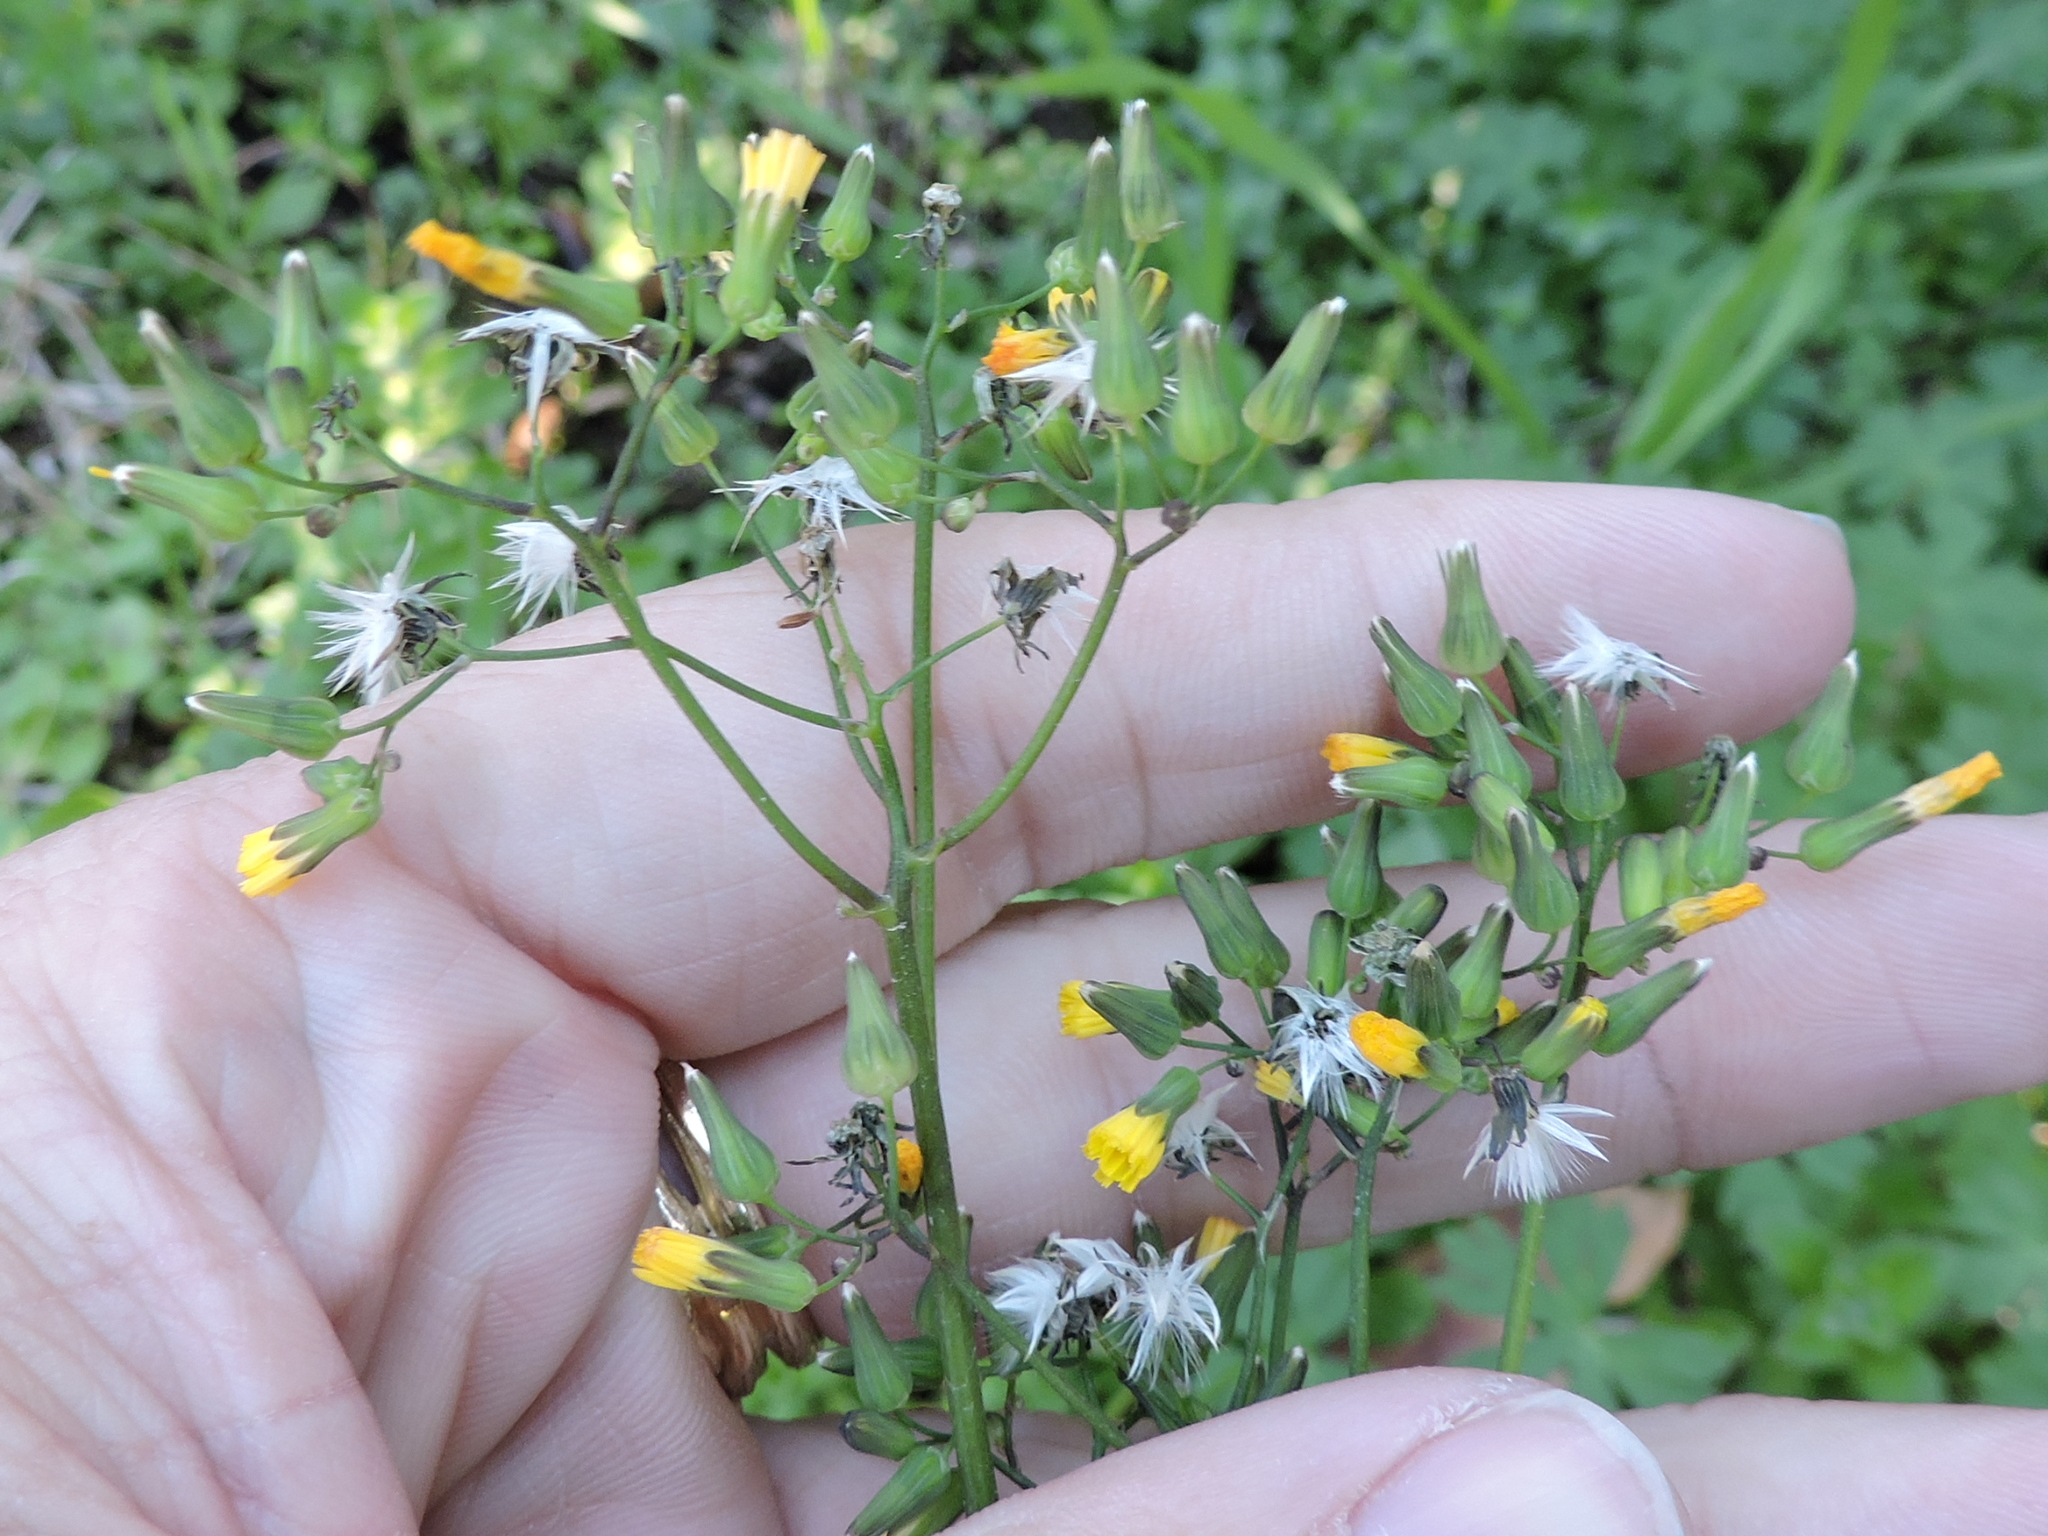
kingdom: Plantae
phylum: Tracheophyta
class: Magnoliopsida
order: Asterales
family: Asteraceae
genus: Youngia
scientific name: Youngia japonica
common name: Oriental false hawksbeard
